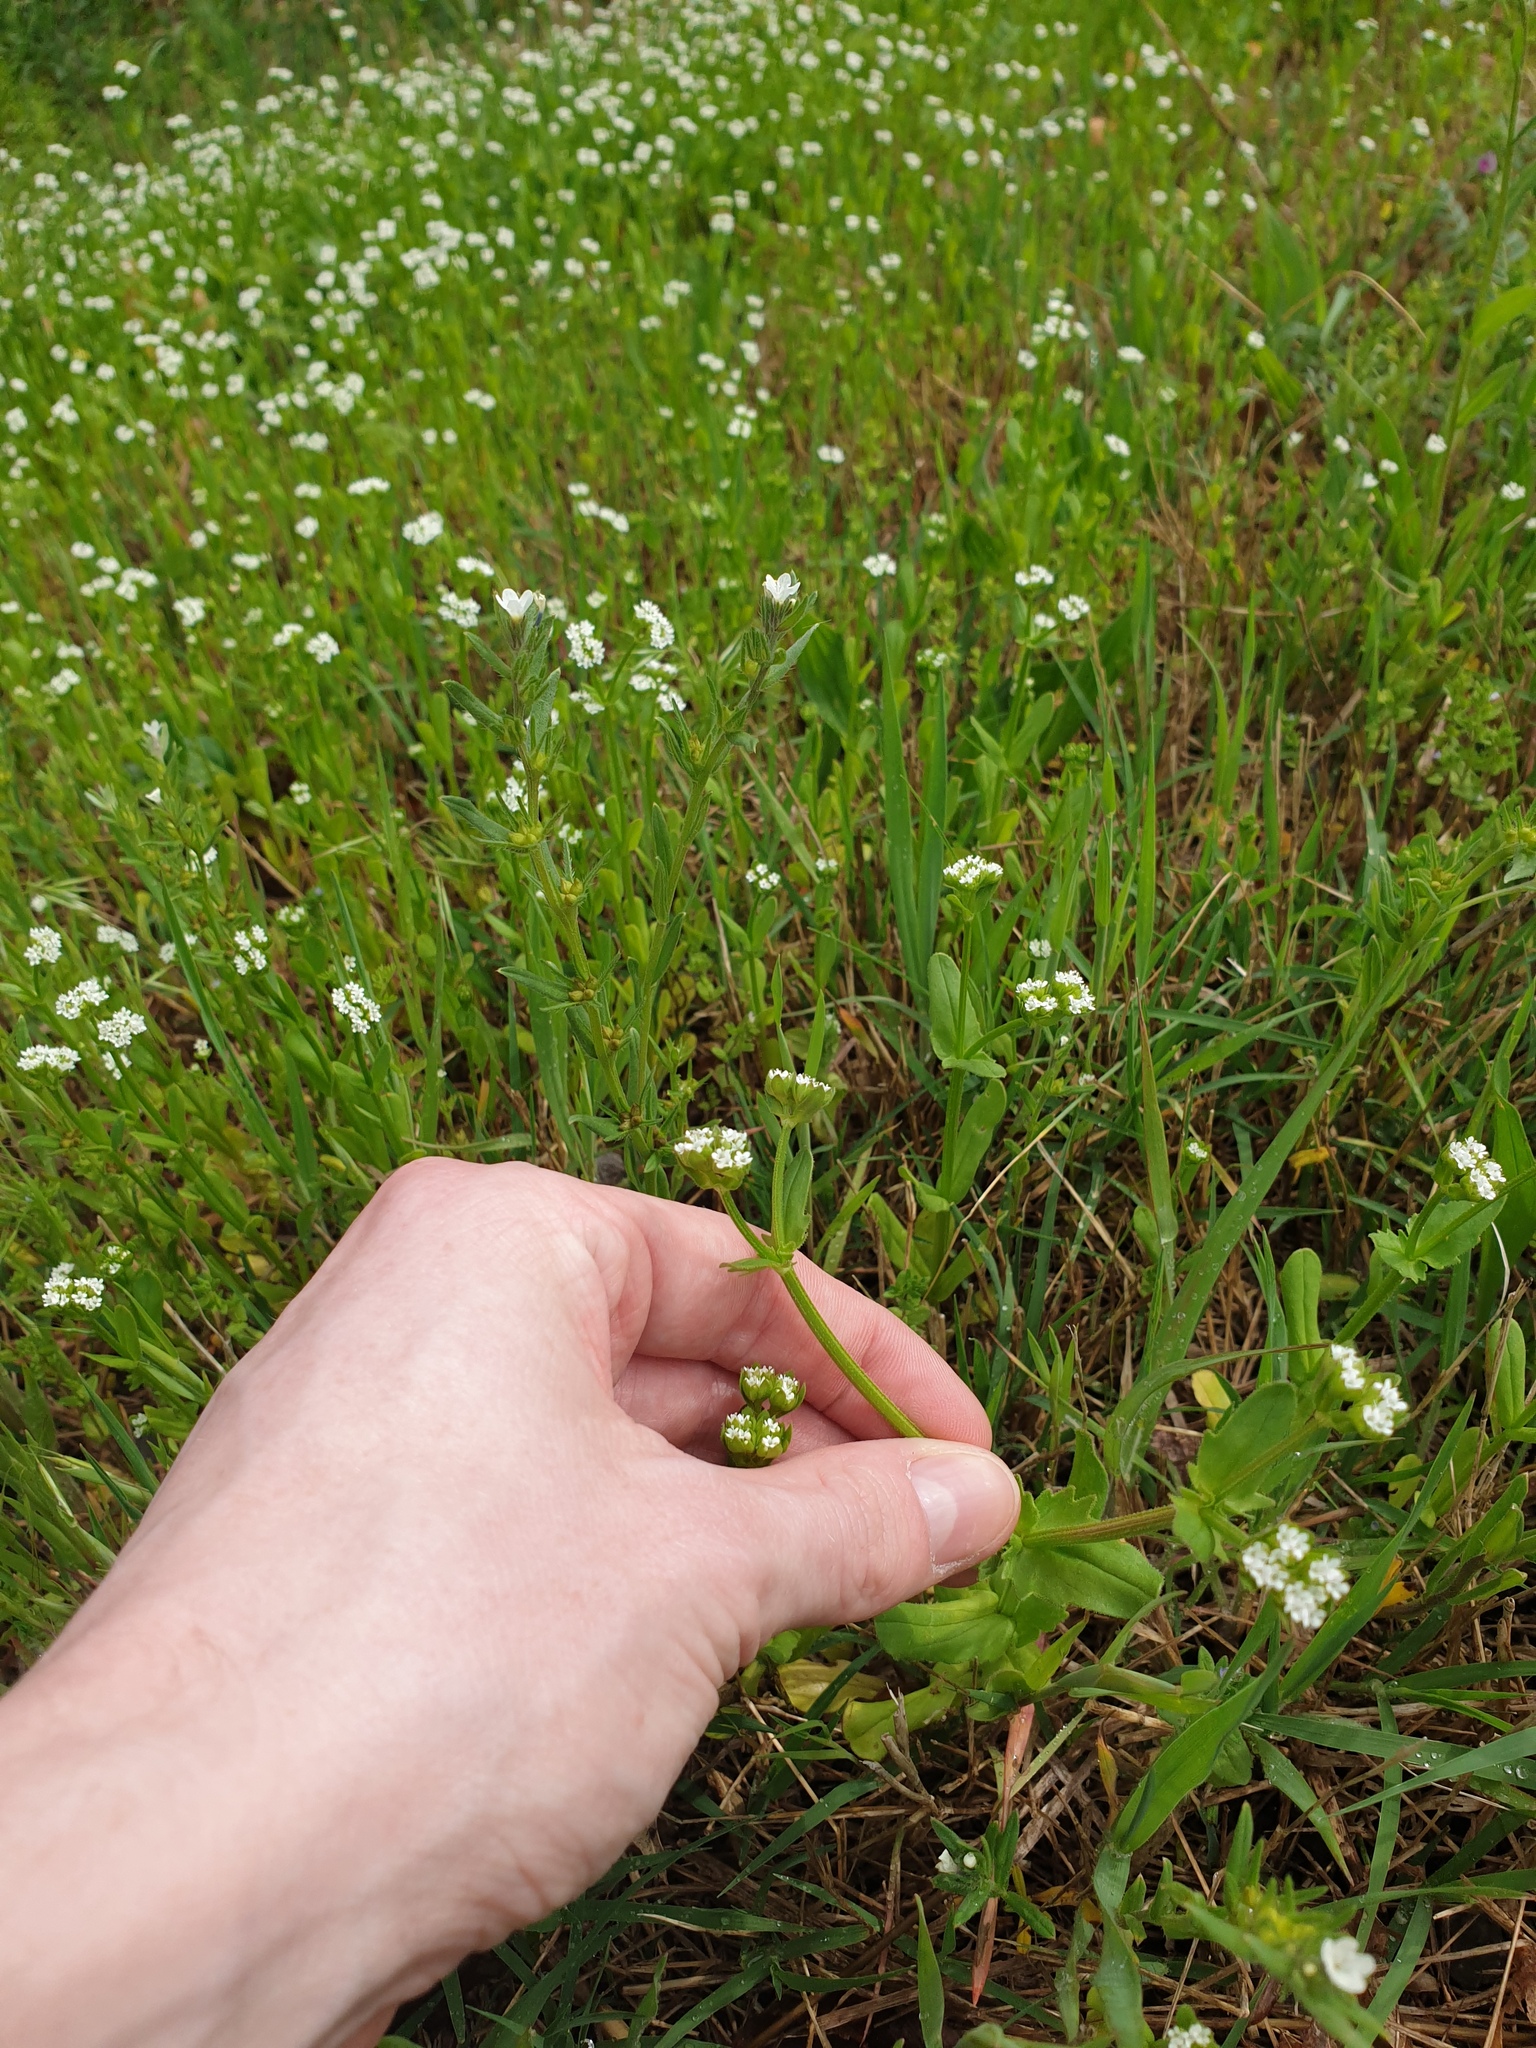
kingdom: Plantae
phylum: Tracheophyta
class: Magnoliopsida
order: Dipsacales
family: Caprifoliaceae
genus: Valerianella
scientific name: Valerianella radiata
